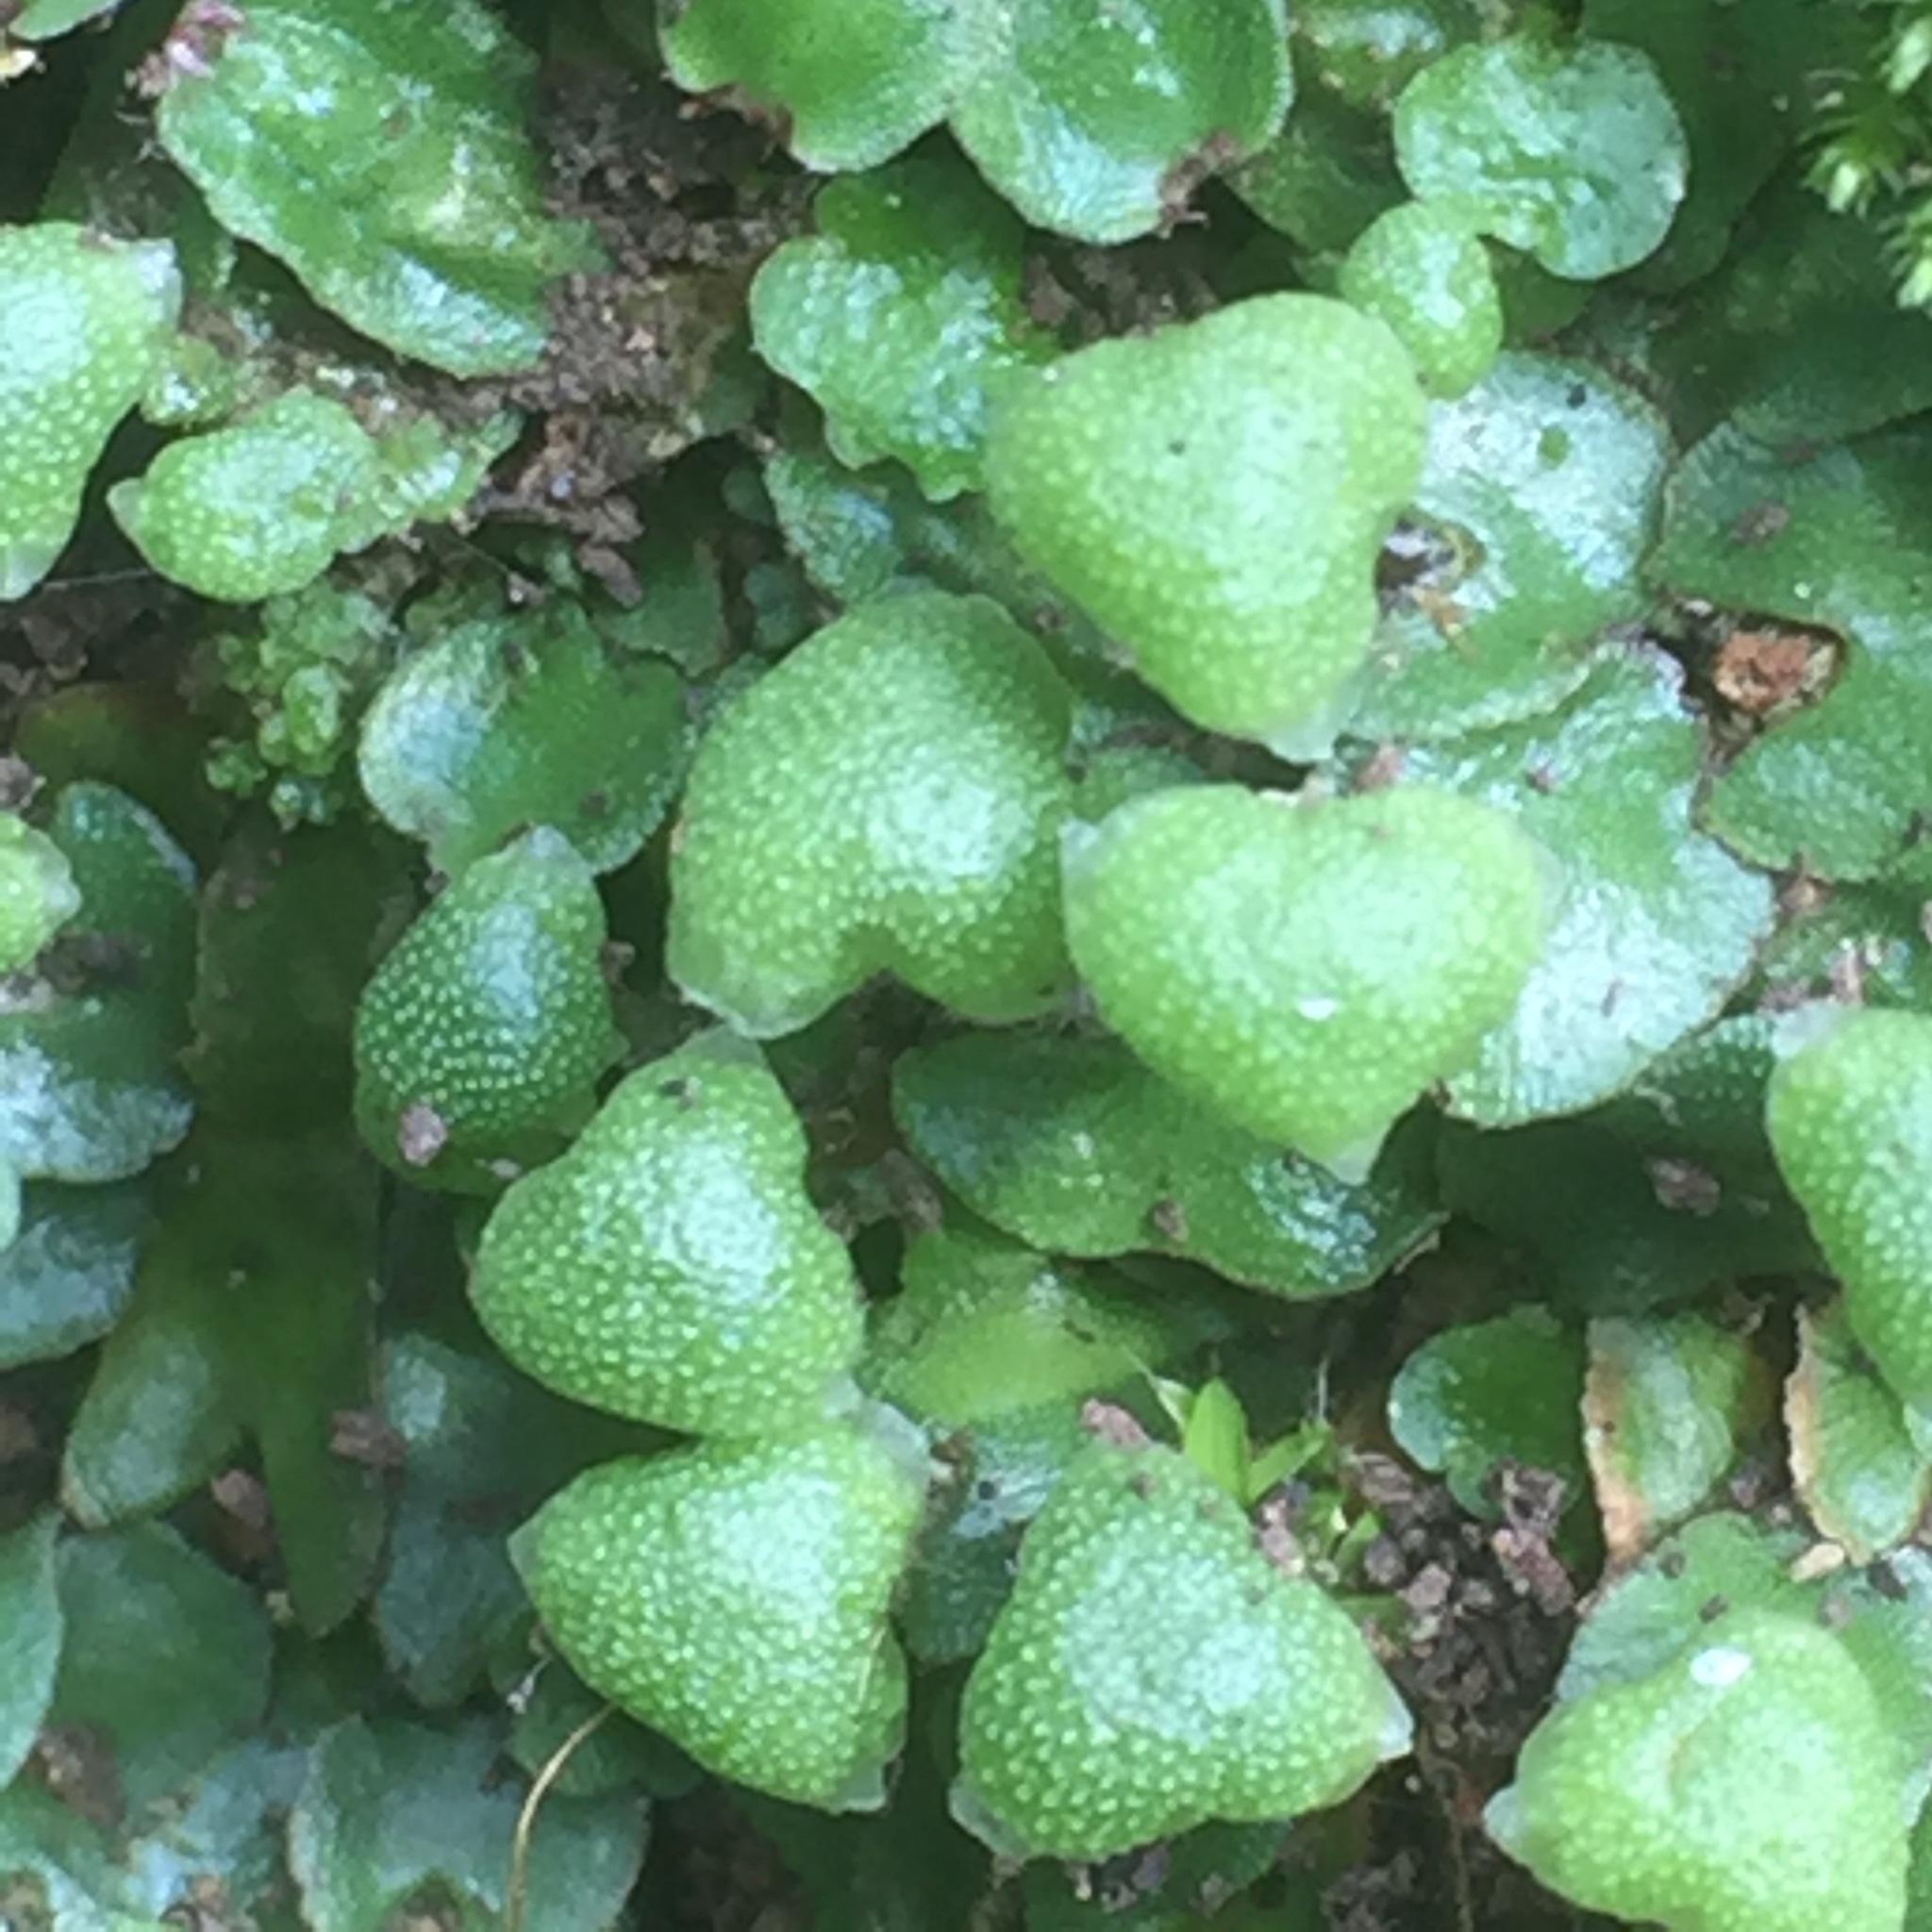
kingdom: Plantae
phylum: Marchantiophyta
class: Marchantiopsida
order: Marchantiales
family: Aytoniaceae
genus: Mannia
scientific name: Mannia androgyna
